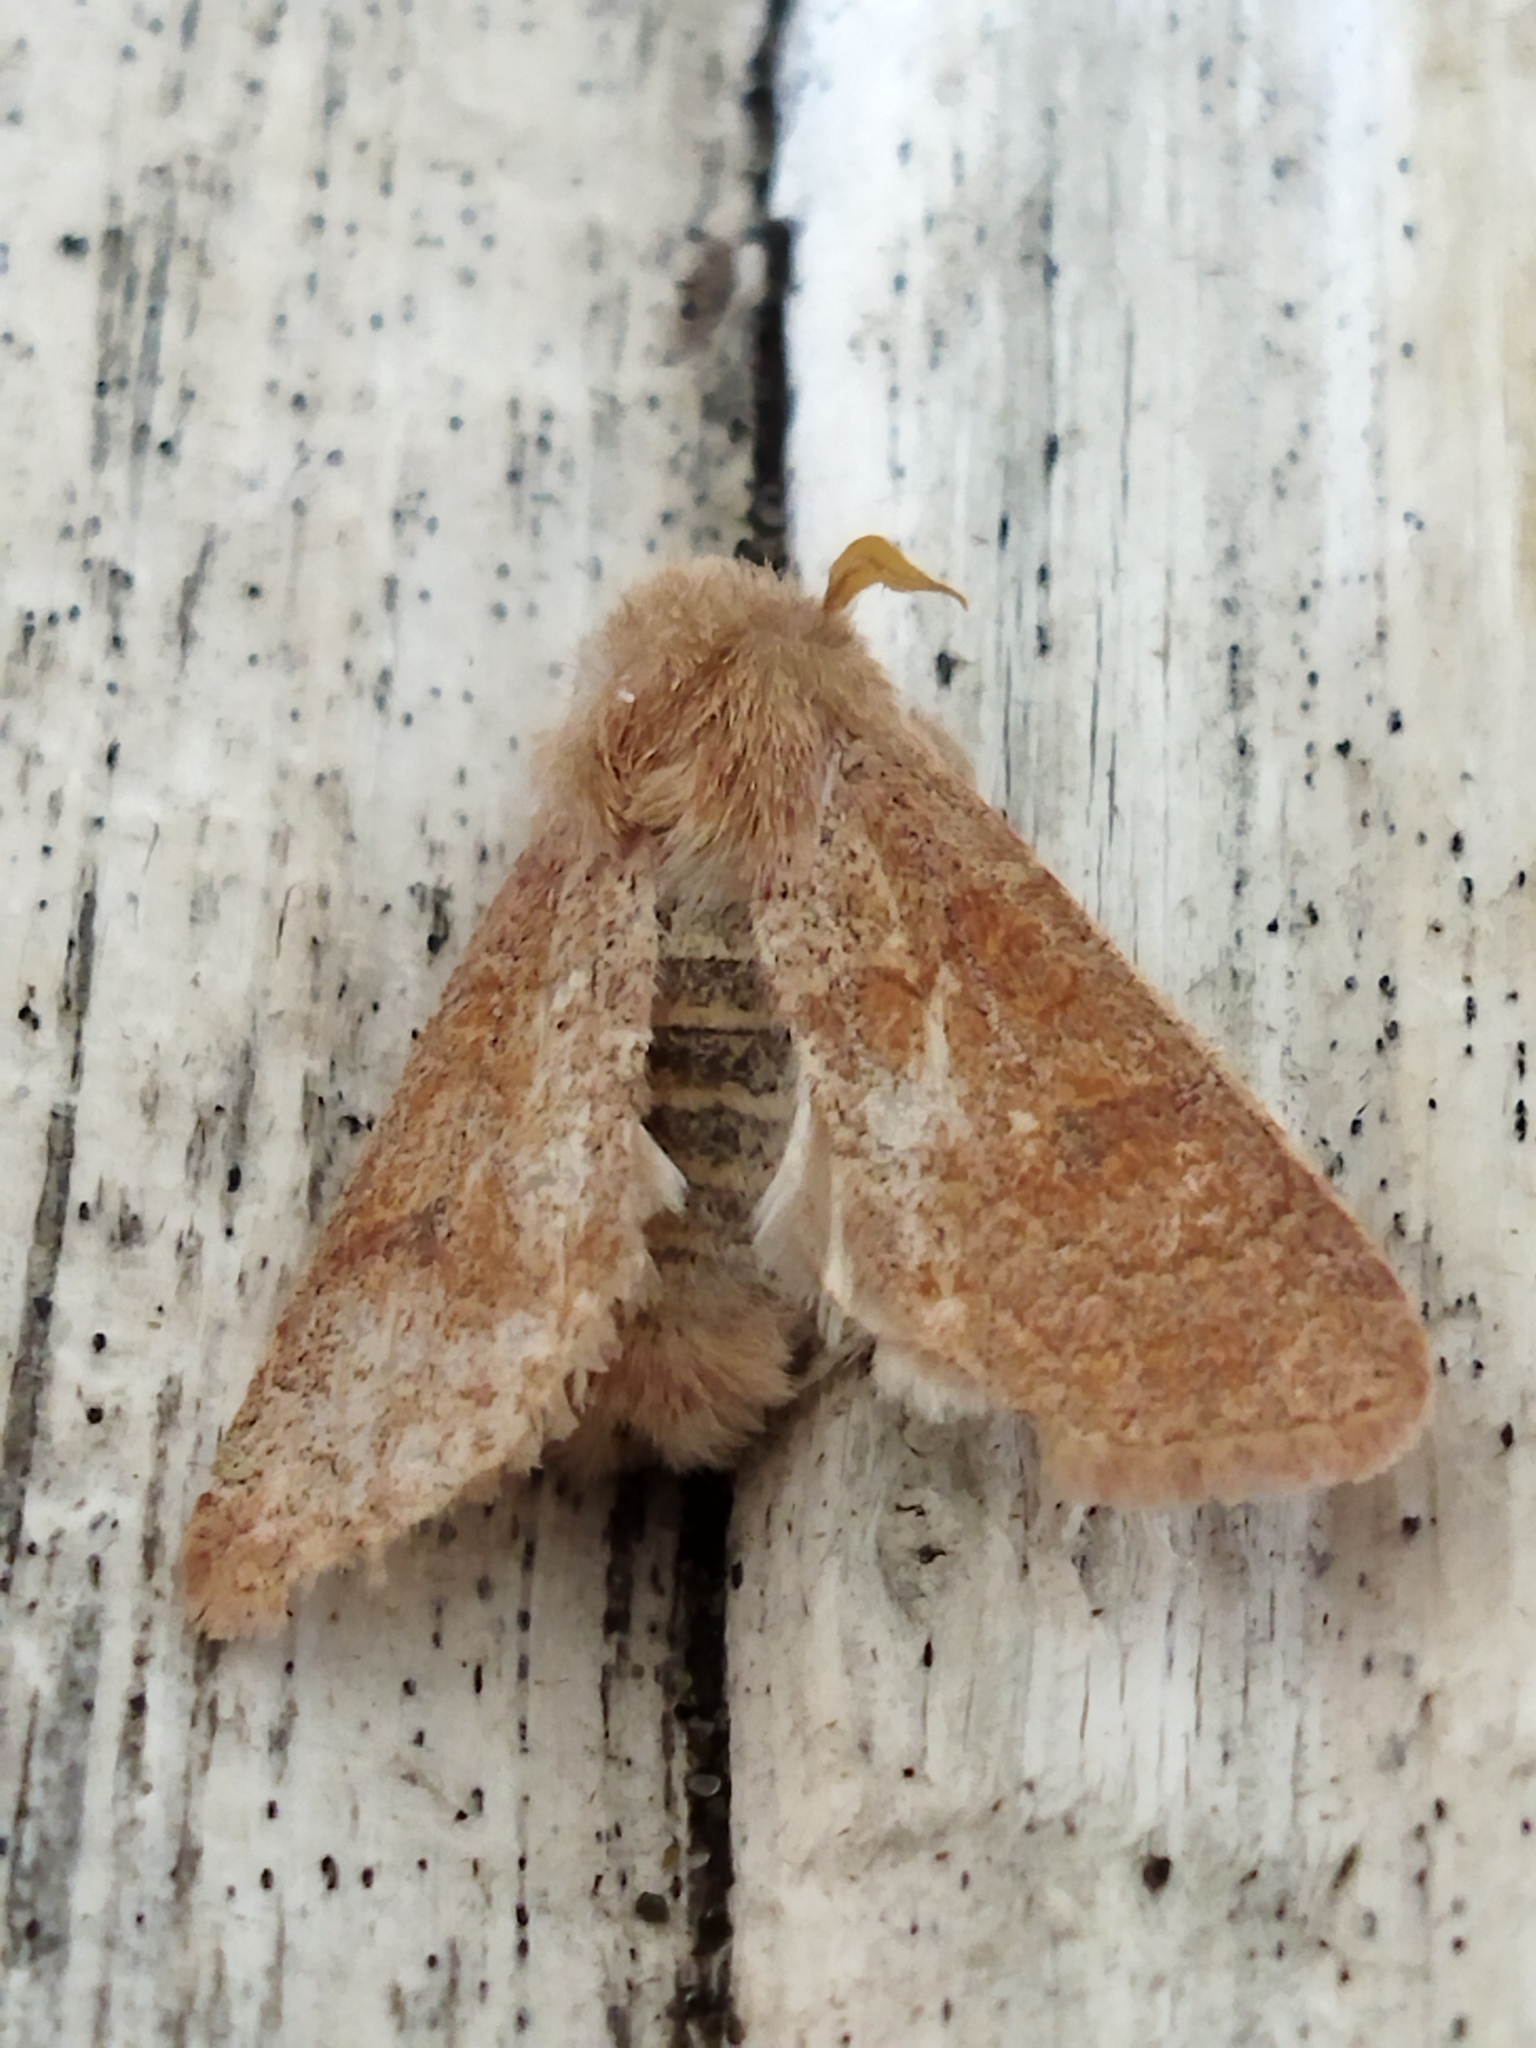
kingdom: Animalia
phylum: Arthropoda
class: Insecta
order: Lepidoptera
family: Noctuidae
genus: Orthosia
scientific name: Orthosia miniosa
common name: Blossom underwing
